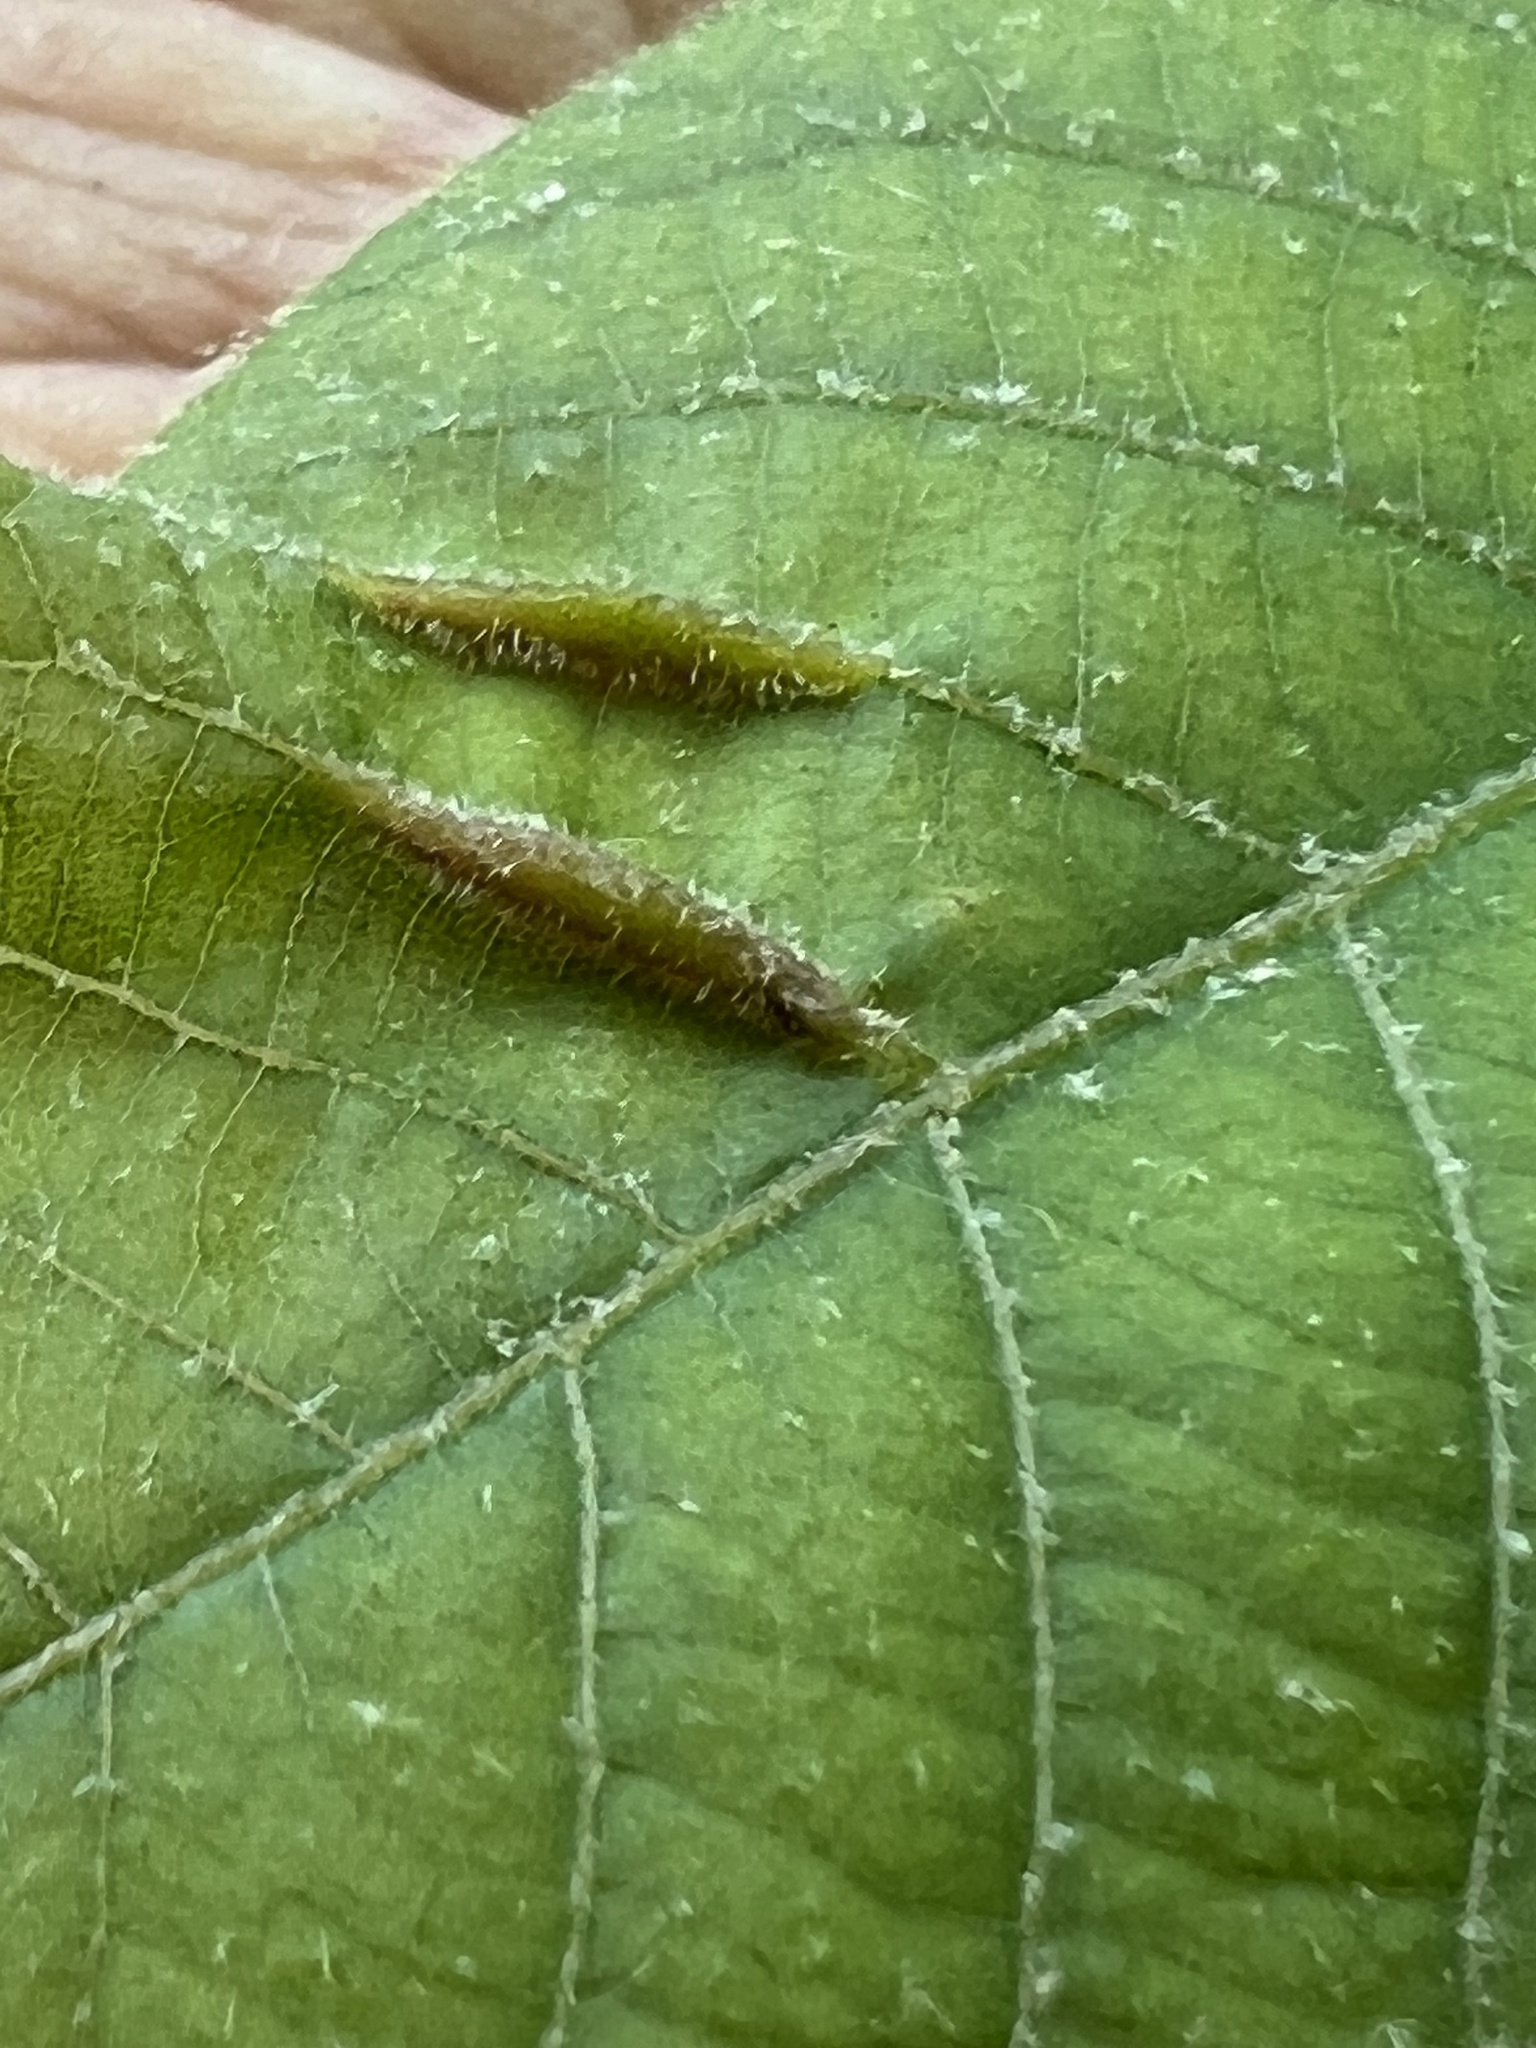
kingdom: Animalia
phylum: Arthropoda
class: Insecta
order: Diptera
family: Cecidomyiidae
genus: Dasineura
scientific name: Dasineura pudibunda
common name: Hornbeam leaf gall midge
